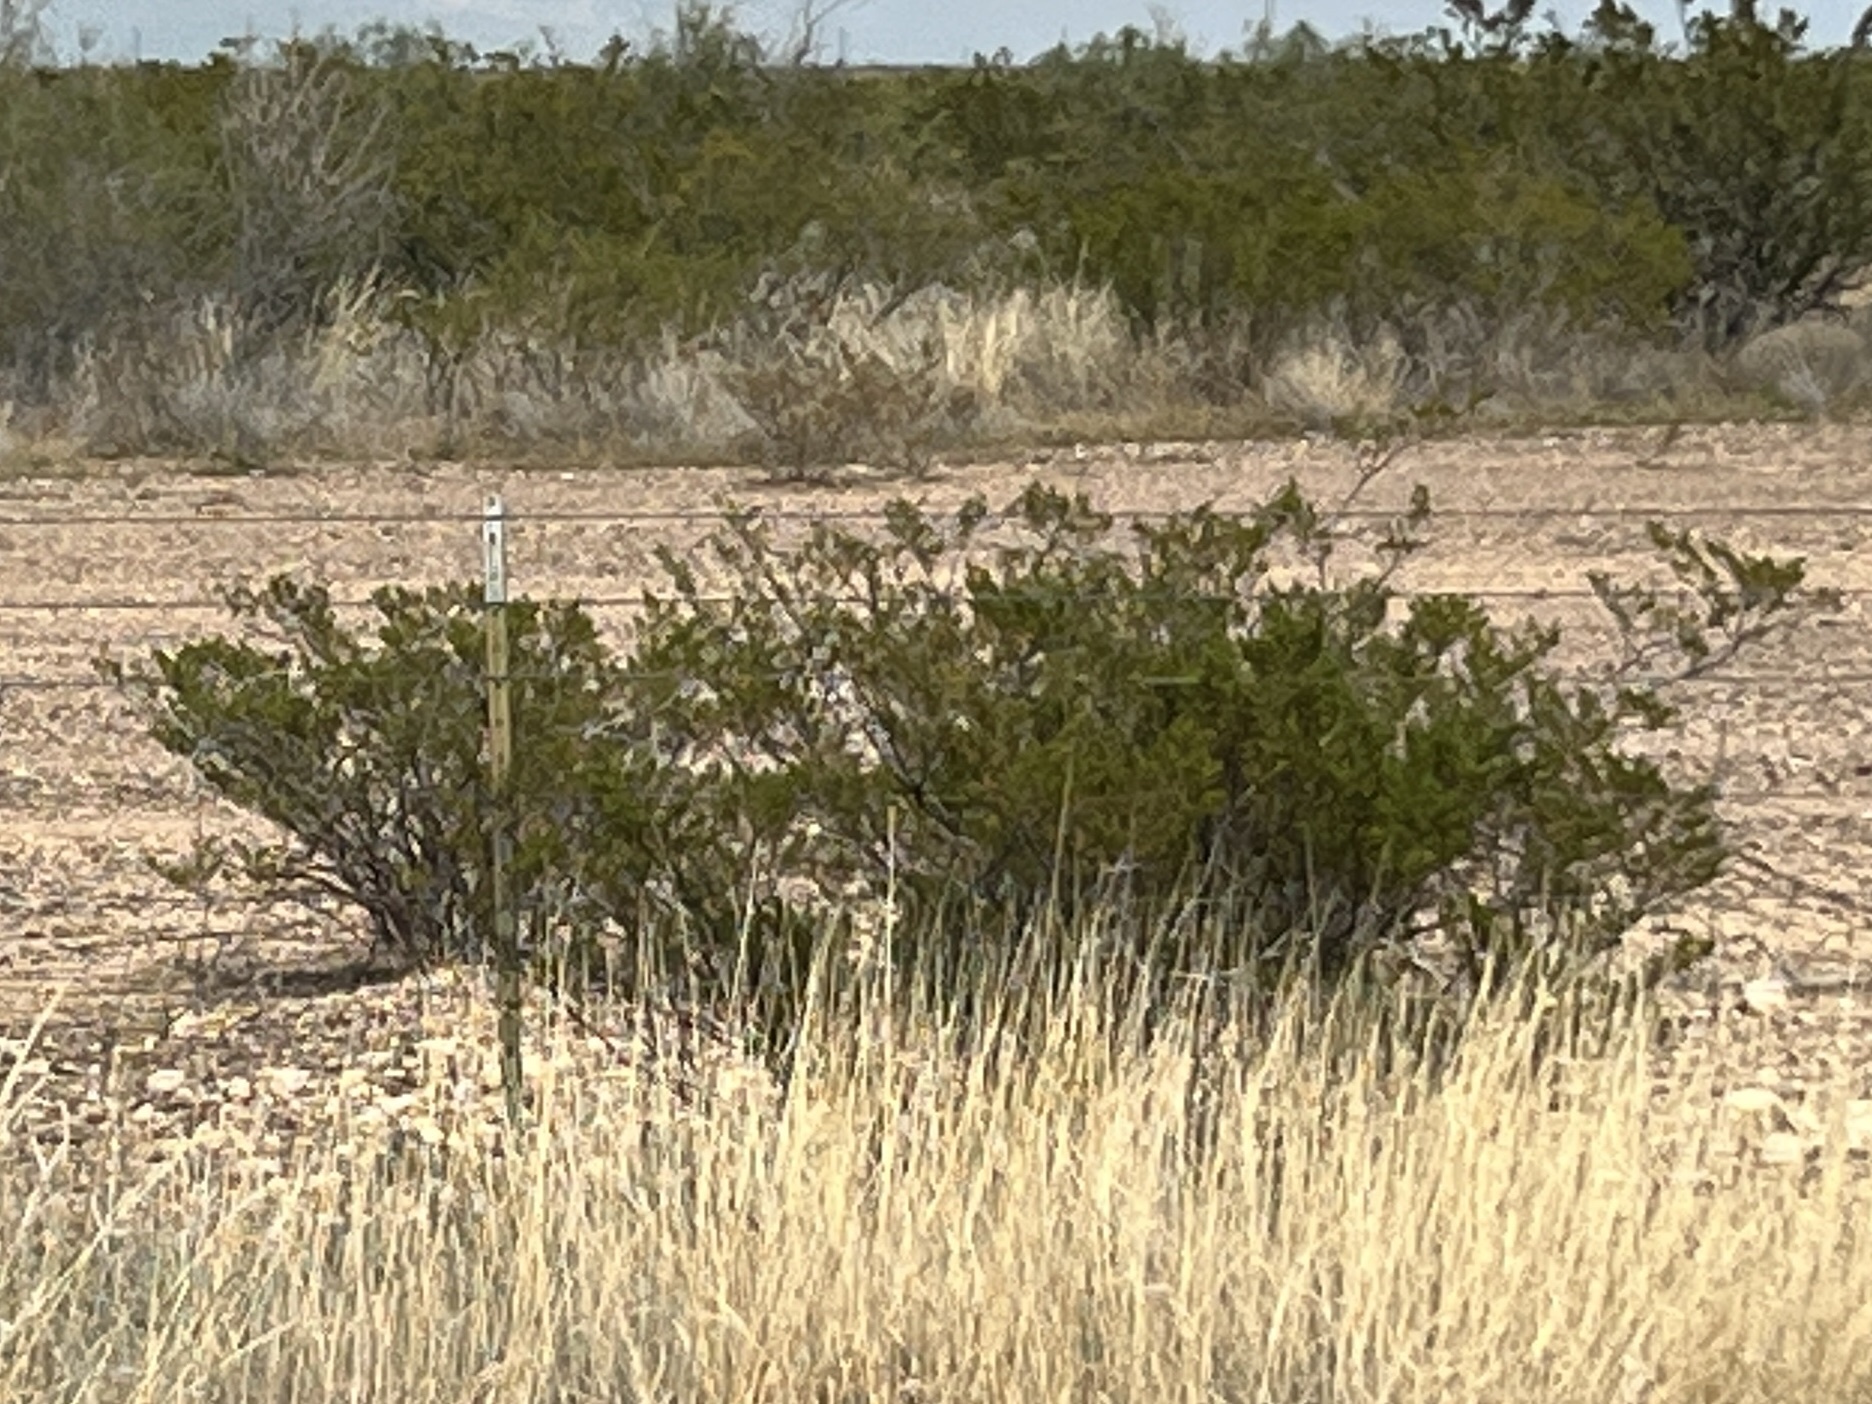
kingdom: Plantae
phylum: Tracheophyta
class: Magnoliopsida
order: Zygophyllales
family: Zygophyllaceae
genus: Larrea
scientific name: Larrea tridentata
